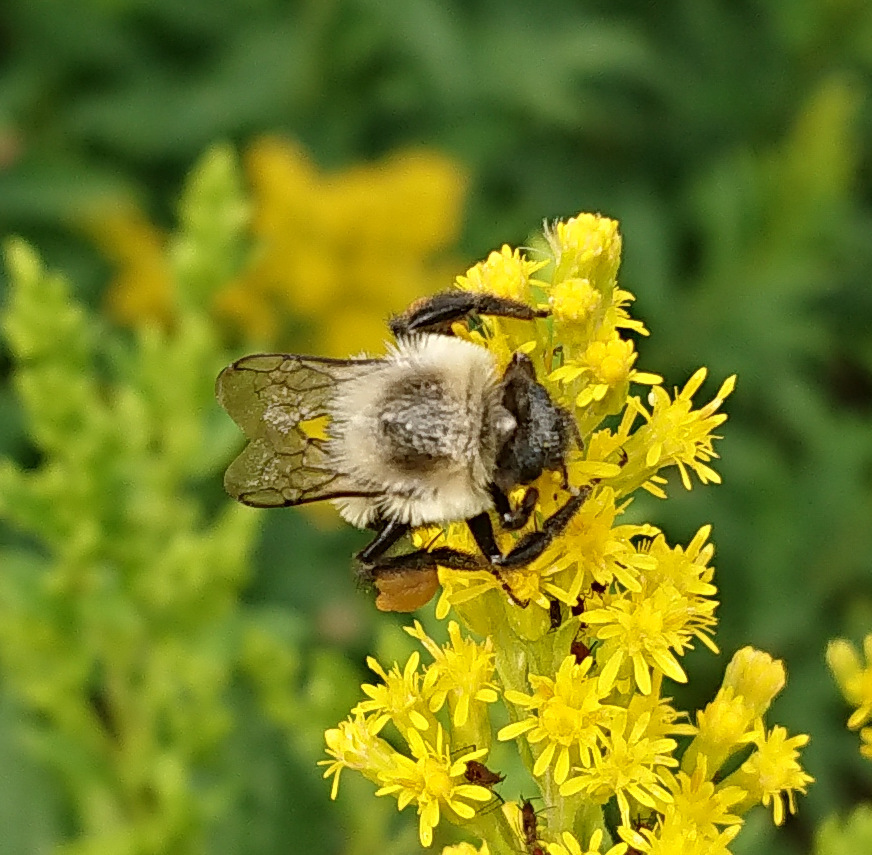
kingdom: Animalia
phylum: Arthropoda
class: Insecta
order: Hymenoptera
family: Apidae
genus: Bombus
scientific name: Bombus impatiens
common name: Common eastern bumble bee
